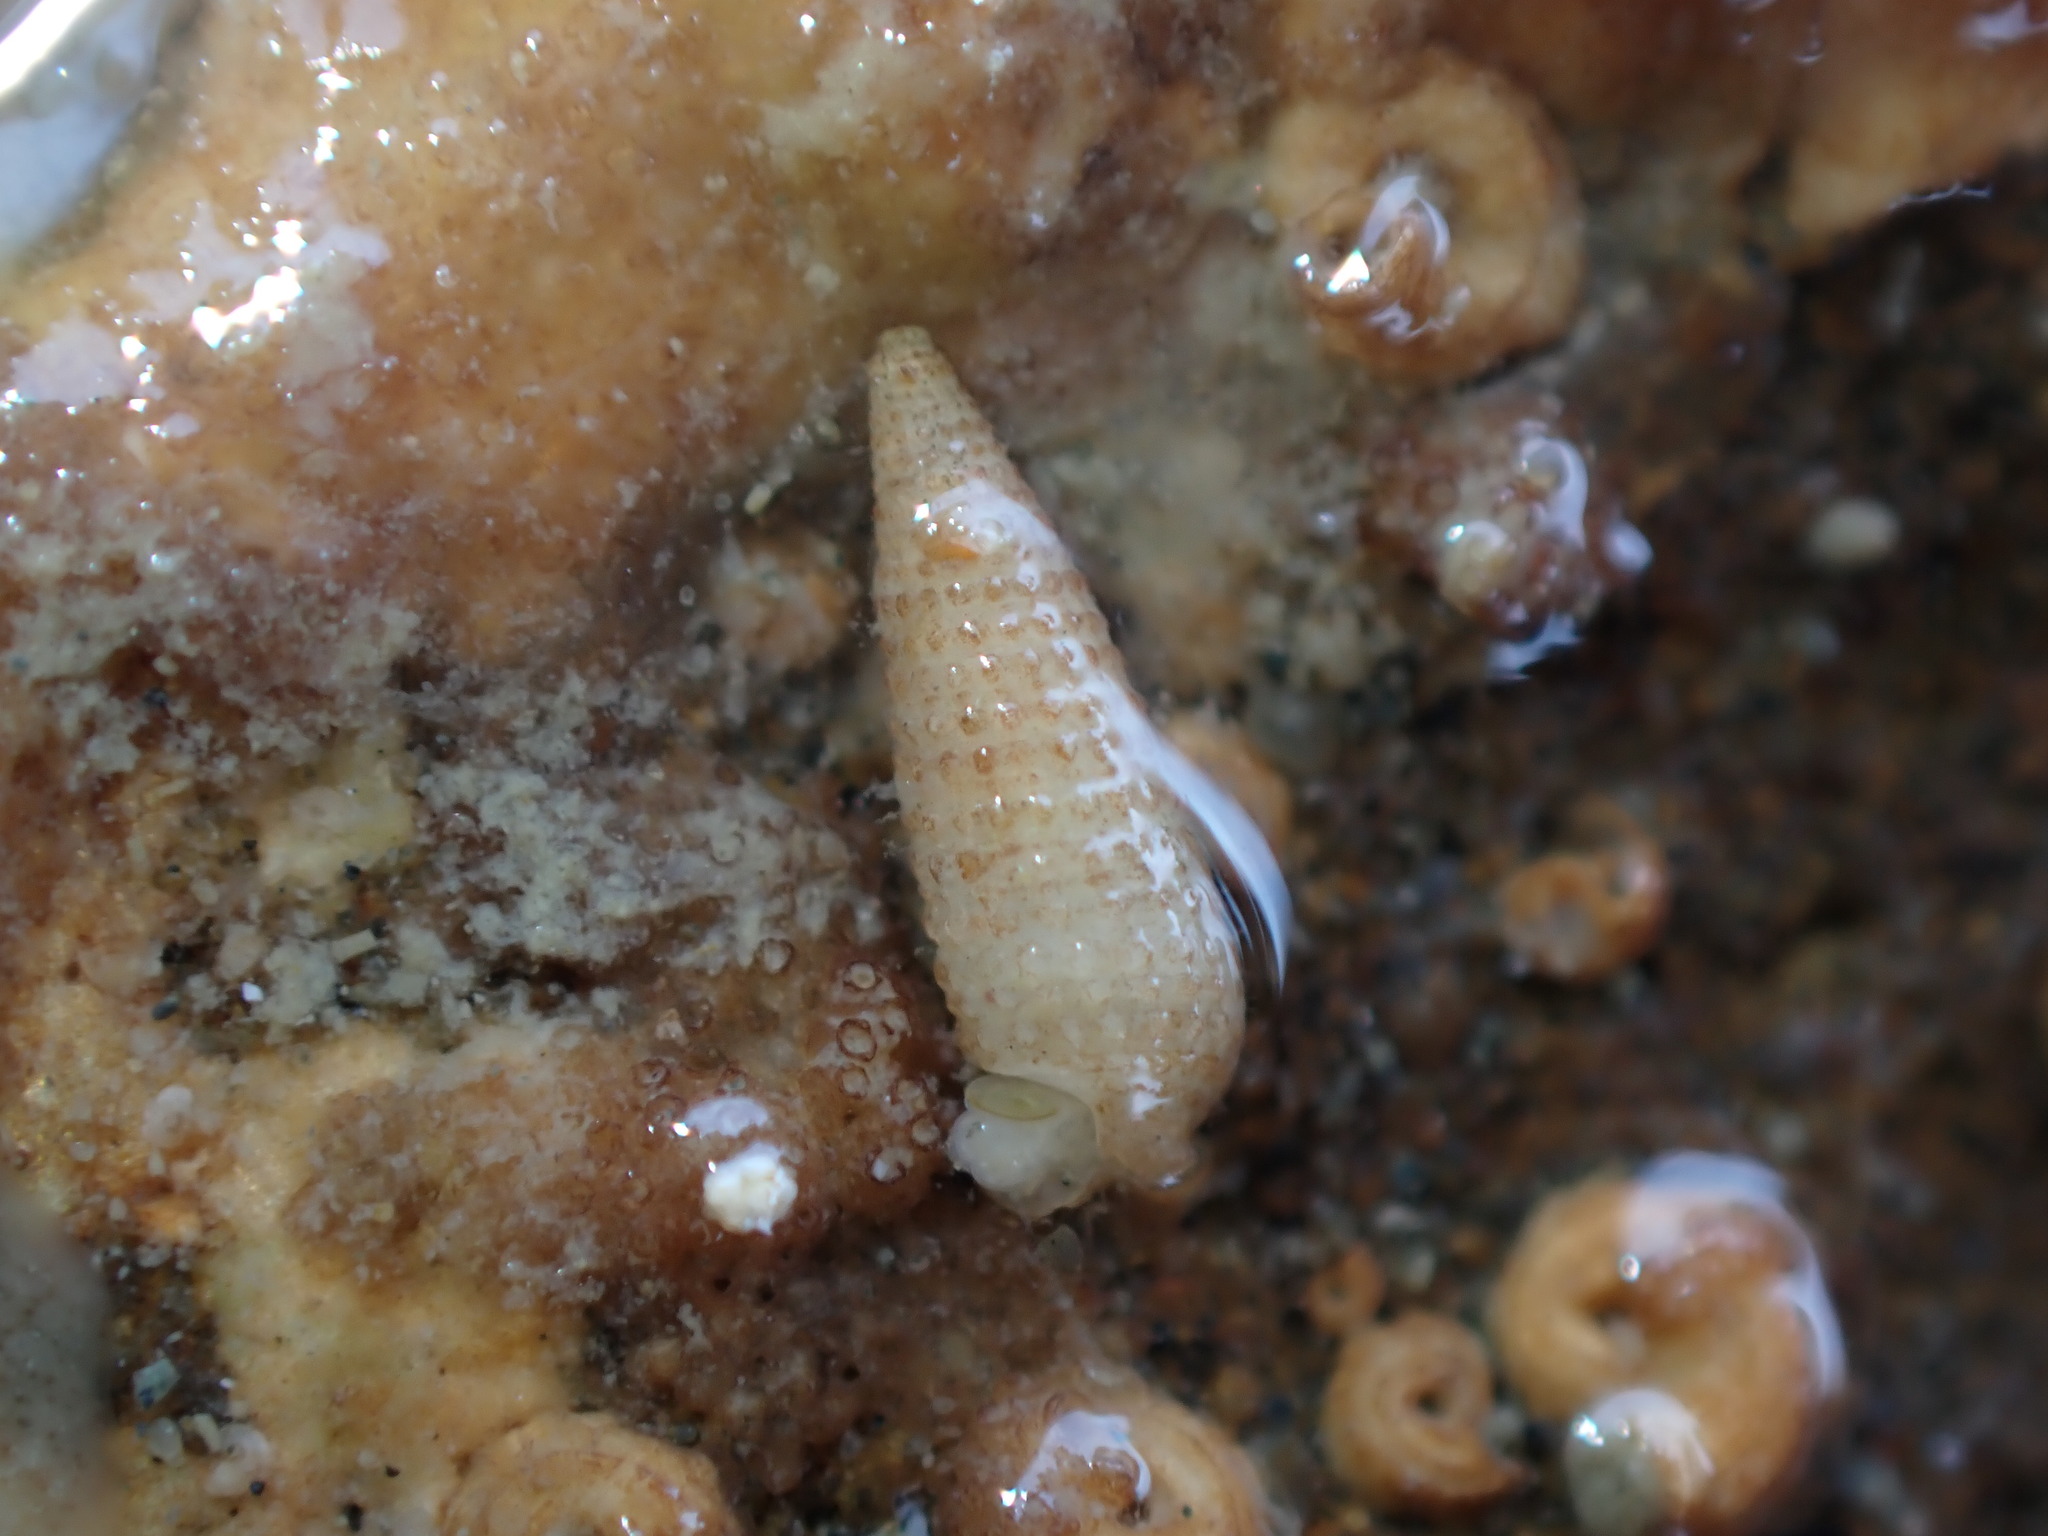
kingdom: Animalia
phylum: Mollusca
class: Gastropoda
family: Triphoridae
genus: Bouchetriphora
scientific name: Bouchetriphora pallida
